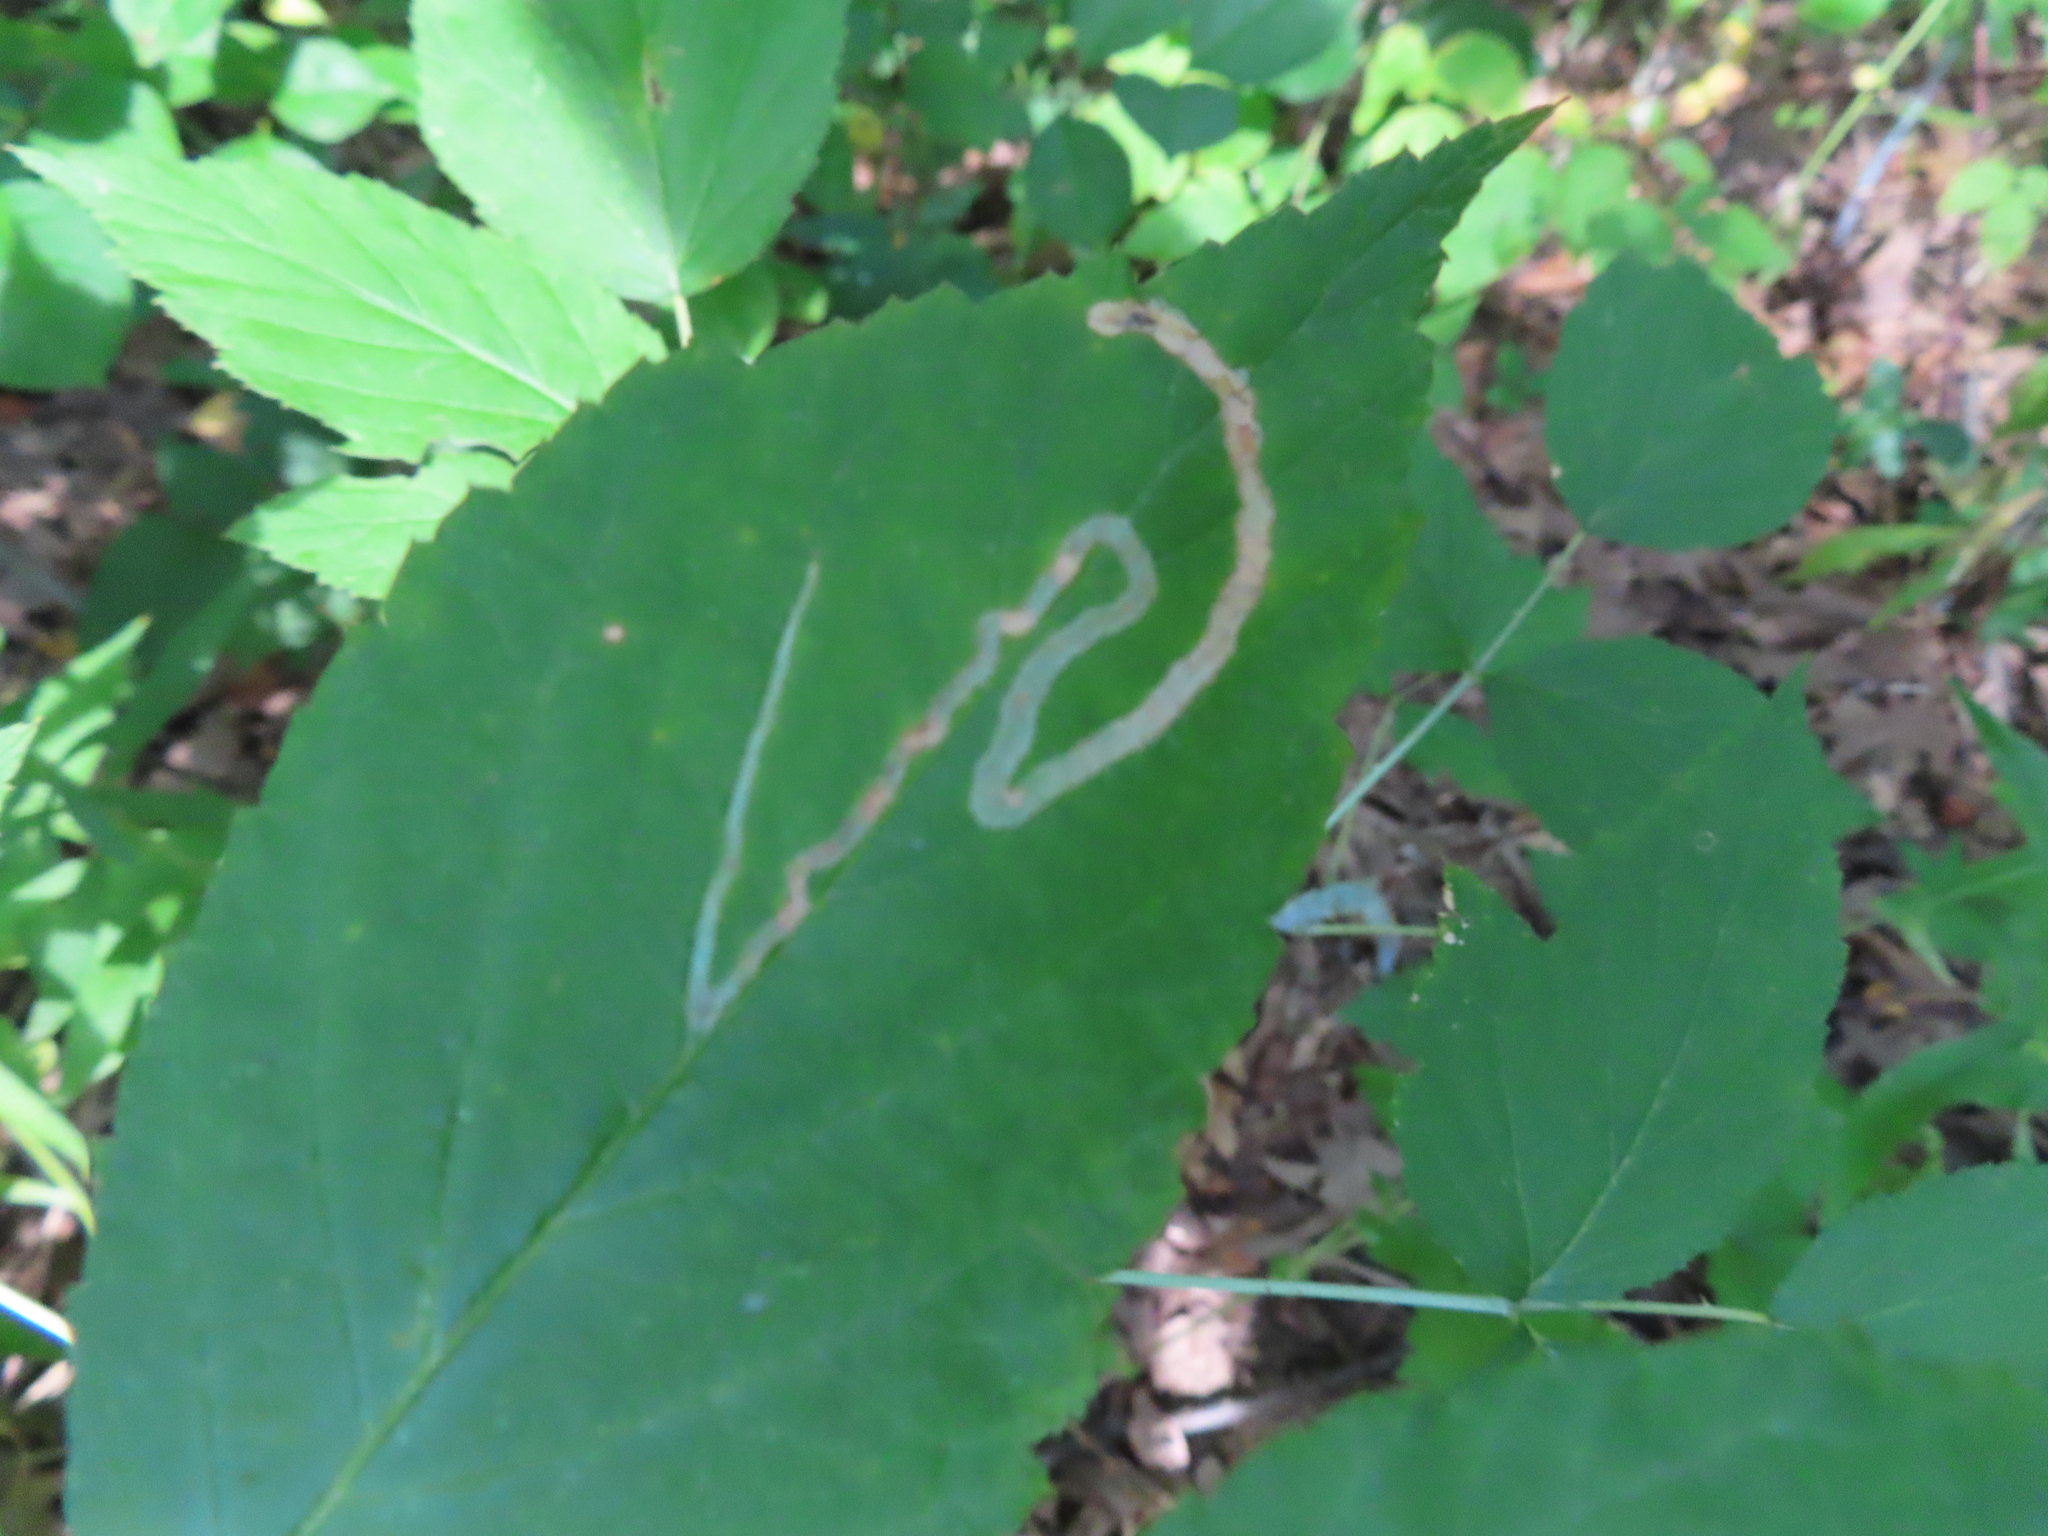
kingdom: Animalia
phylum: Arthropoda
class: Insecta
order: Diptera
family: Agromyzidae
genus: Agromyza
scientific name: Agromyza vockerothi
